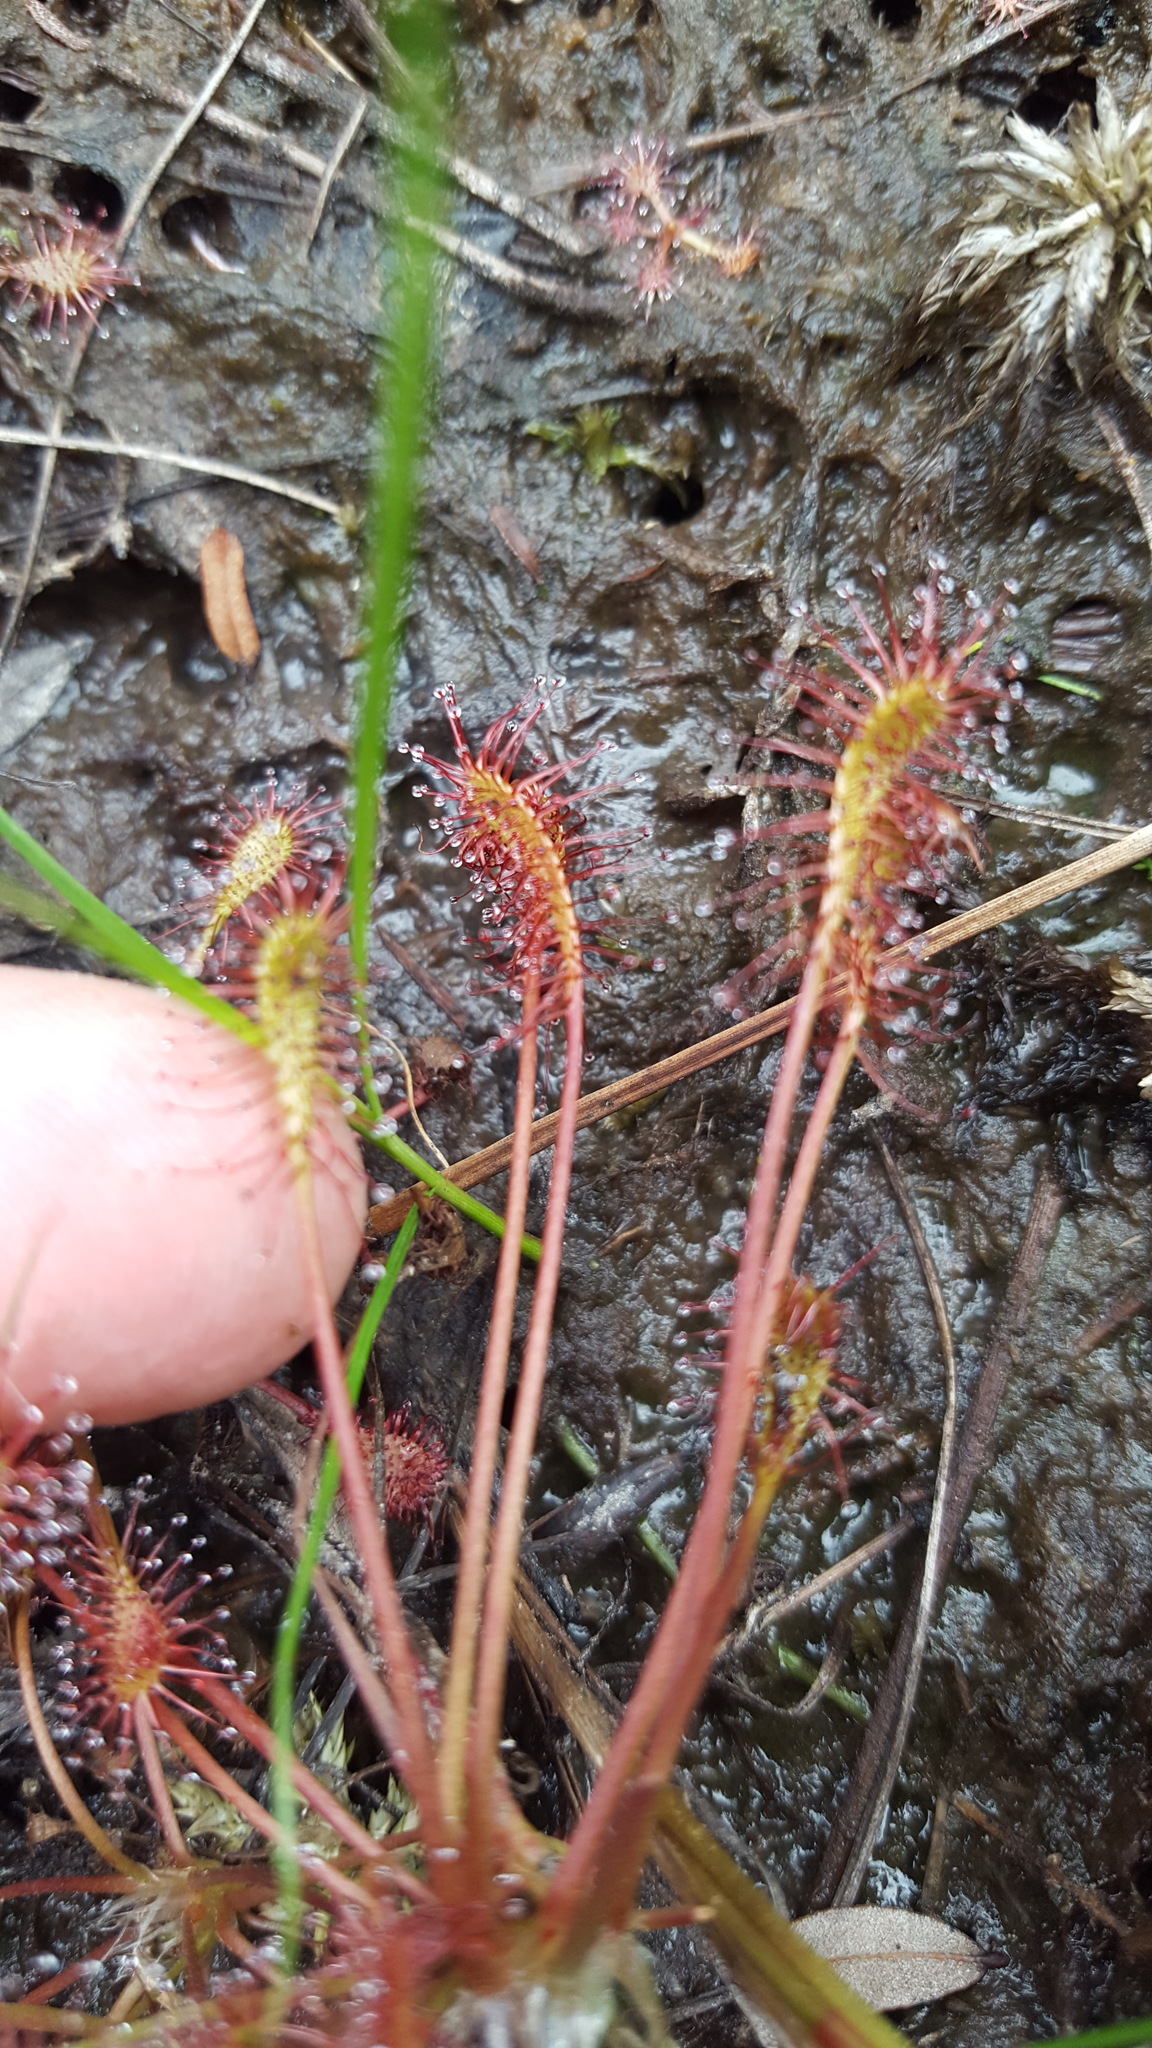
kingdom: Plantae
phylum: Tracheophyta
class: Magnoliopsida
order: Caryophyllales
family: Droseraceae
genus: Drosera
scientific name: Drosera intermedia
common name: Oblong-leaved sundew
